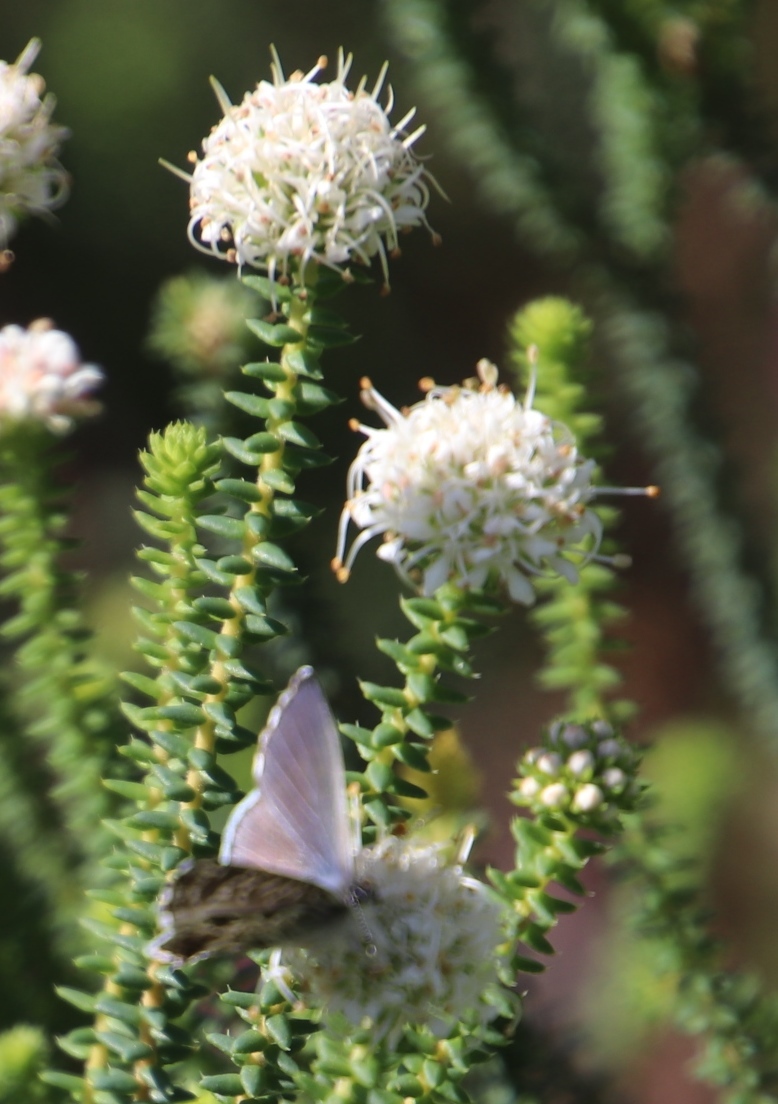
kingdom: Plantae
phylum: Tracheophyta
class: Magnoliopsida
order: Sapindales
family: Rutaceae
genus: Agathosma
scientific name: Agathosma apiculata
